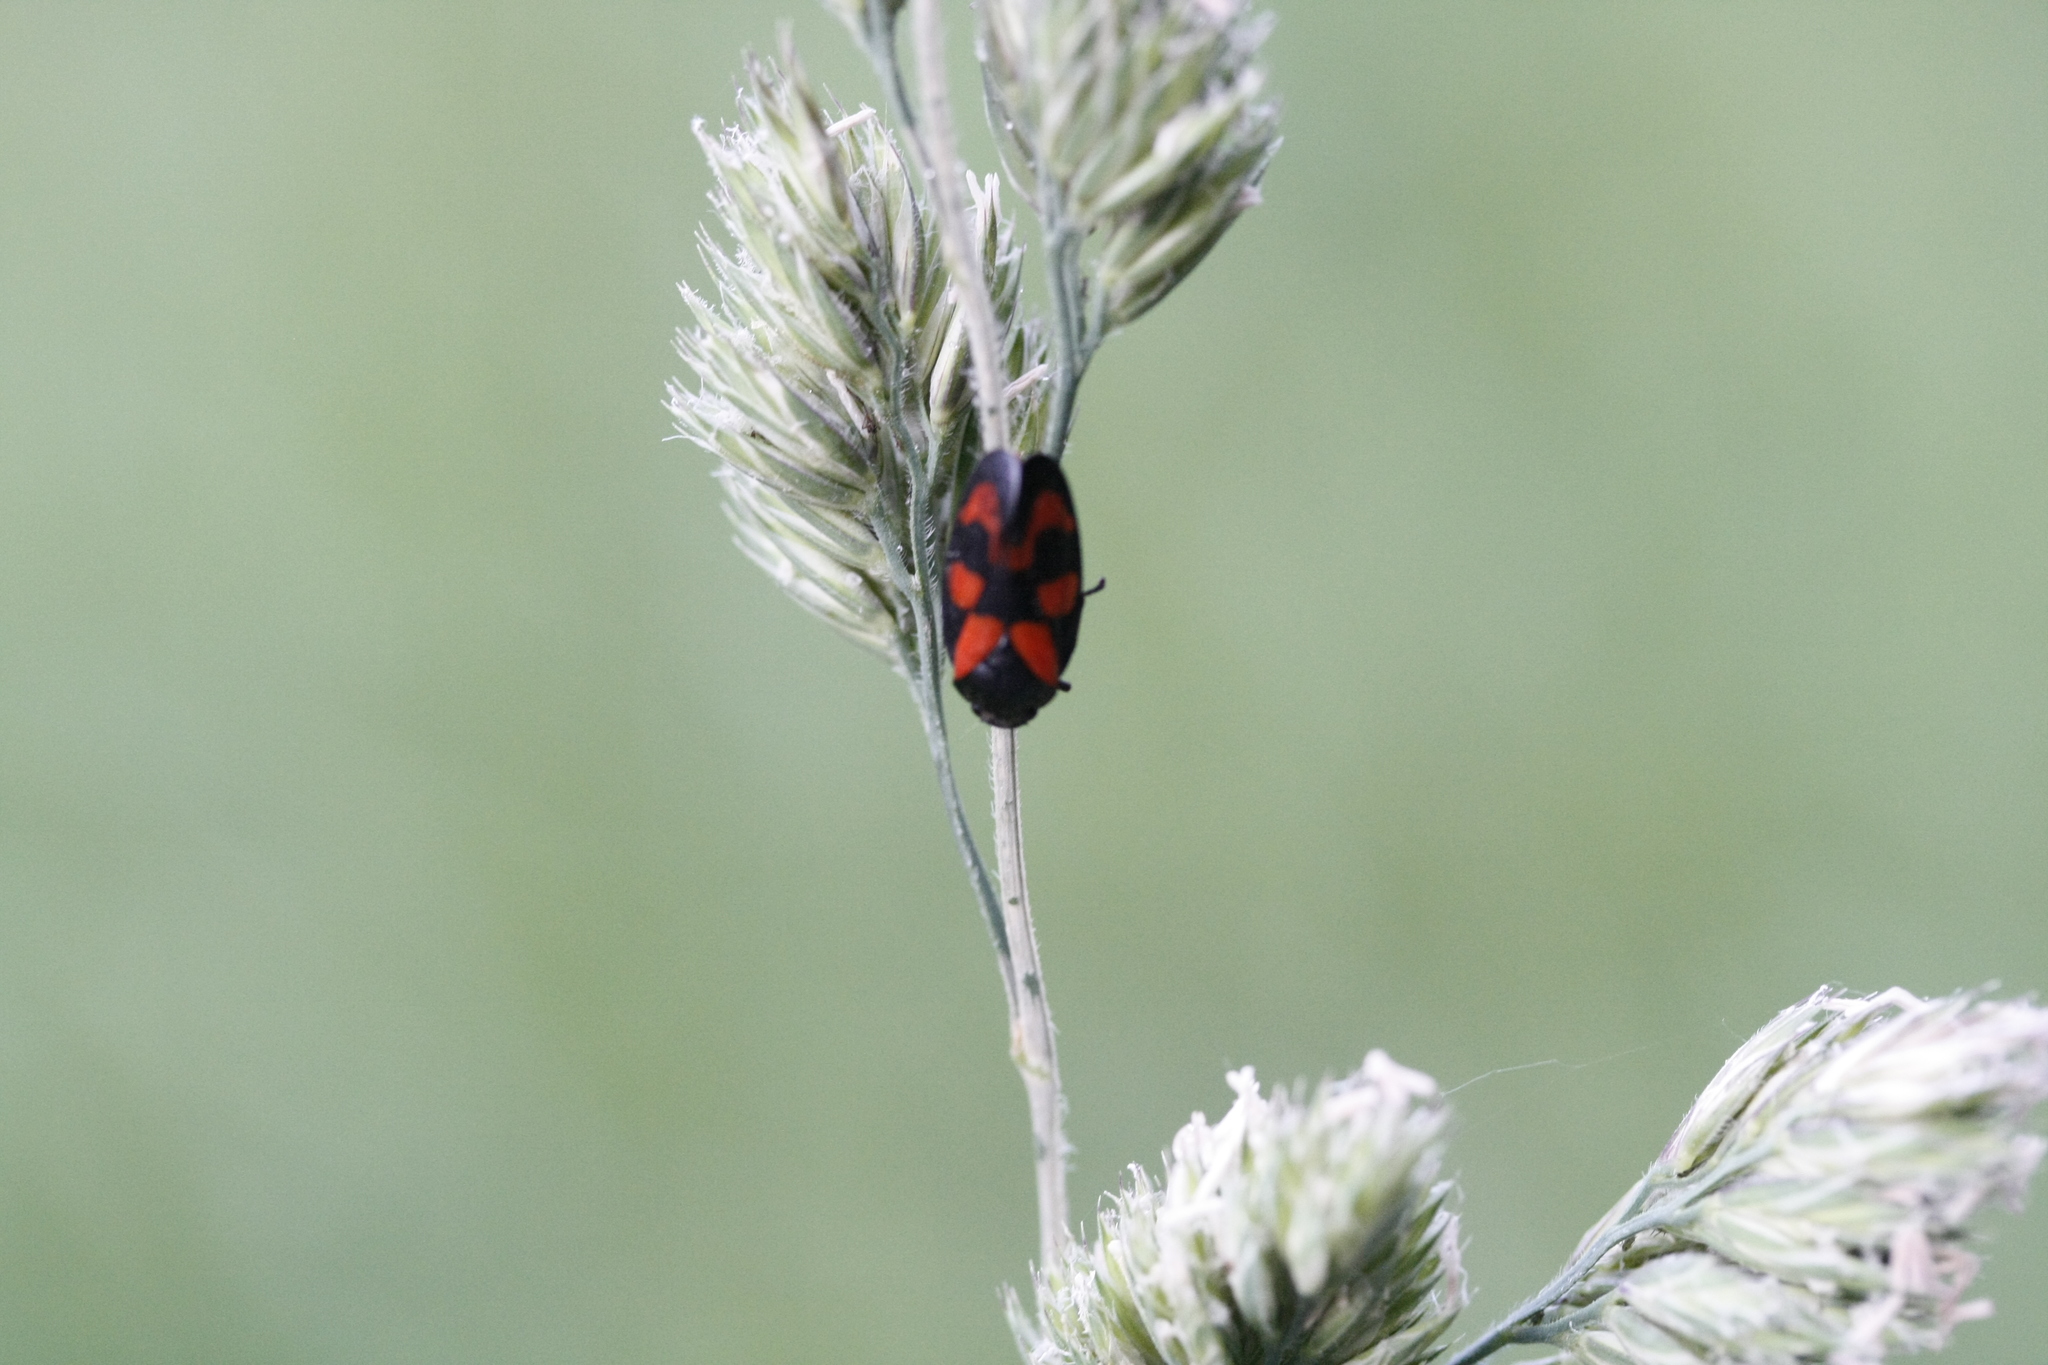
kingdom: Animalia
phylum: Arthropoda
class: Insecta
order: Hemiptera
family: Cercopidae
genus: Cercopis
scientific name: Cercopis vulnerata
